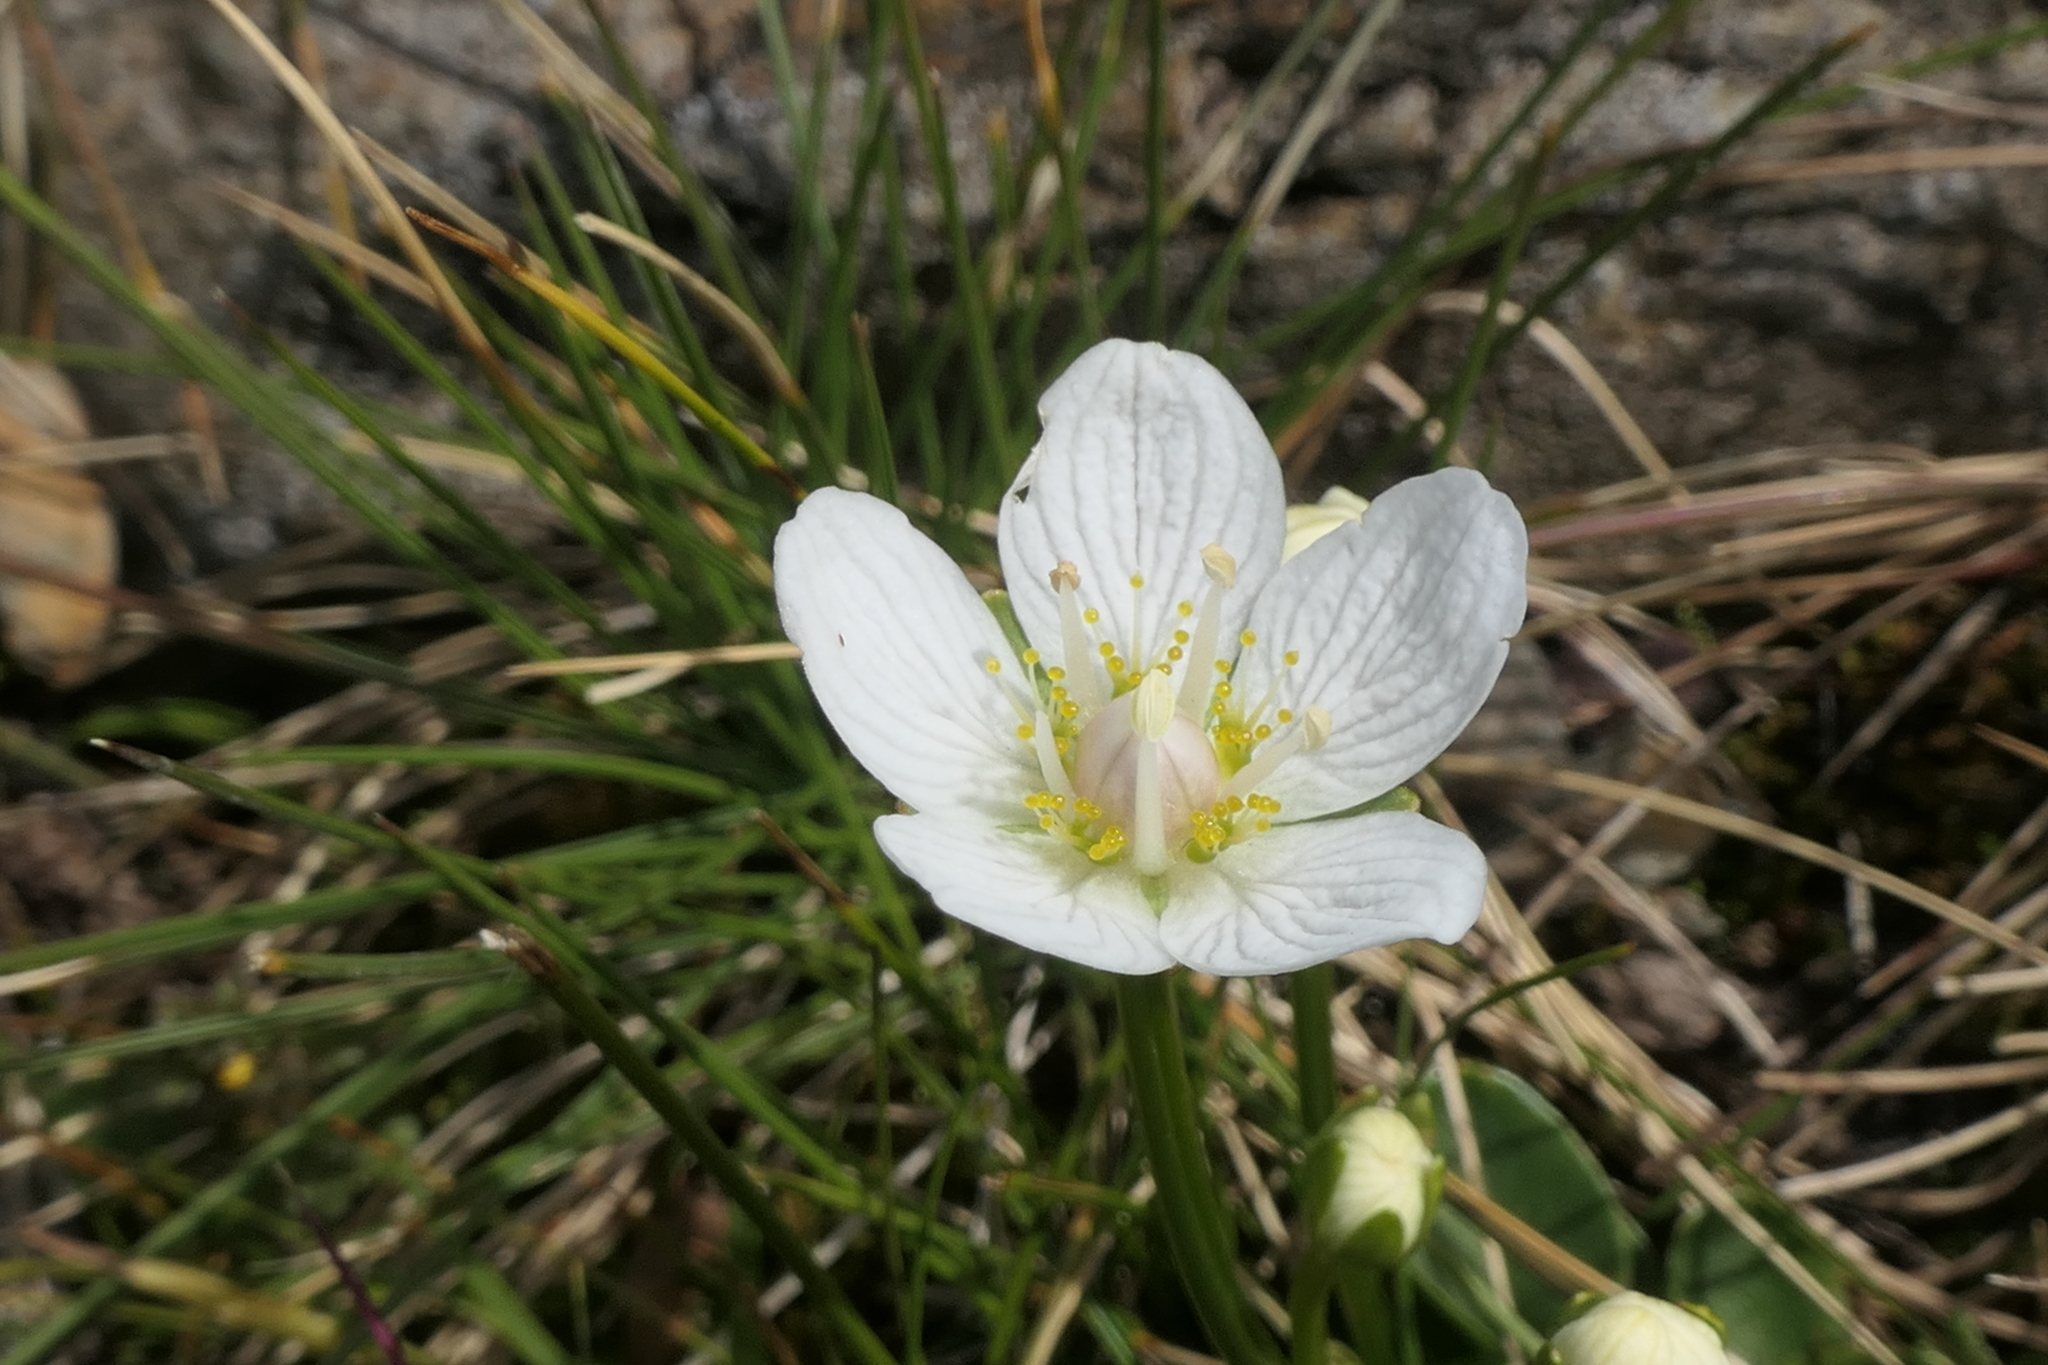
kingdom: Plantae
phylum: Tracheophyta
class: Magnoliopsida
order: Celastrales
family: Parnassiaceae
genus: Parnassia
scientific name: Parnassia palustris
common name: Grass-of-parnassus
